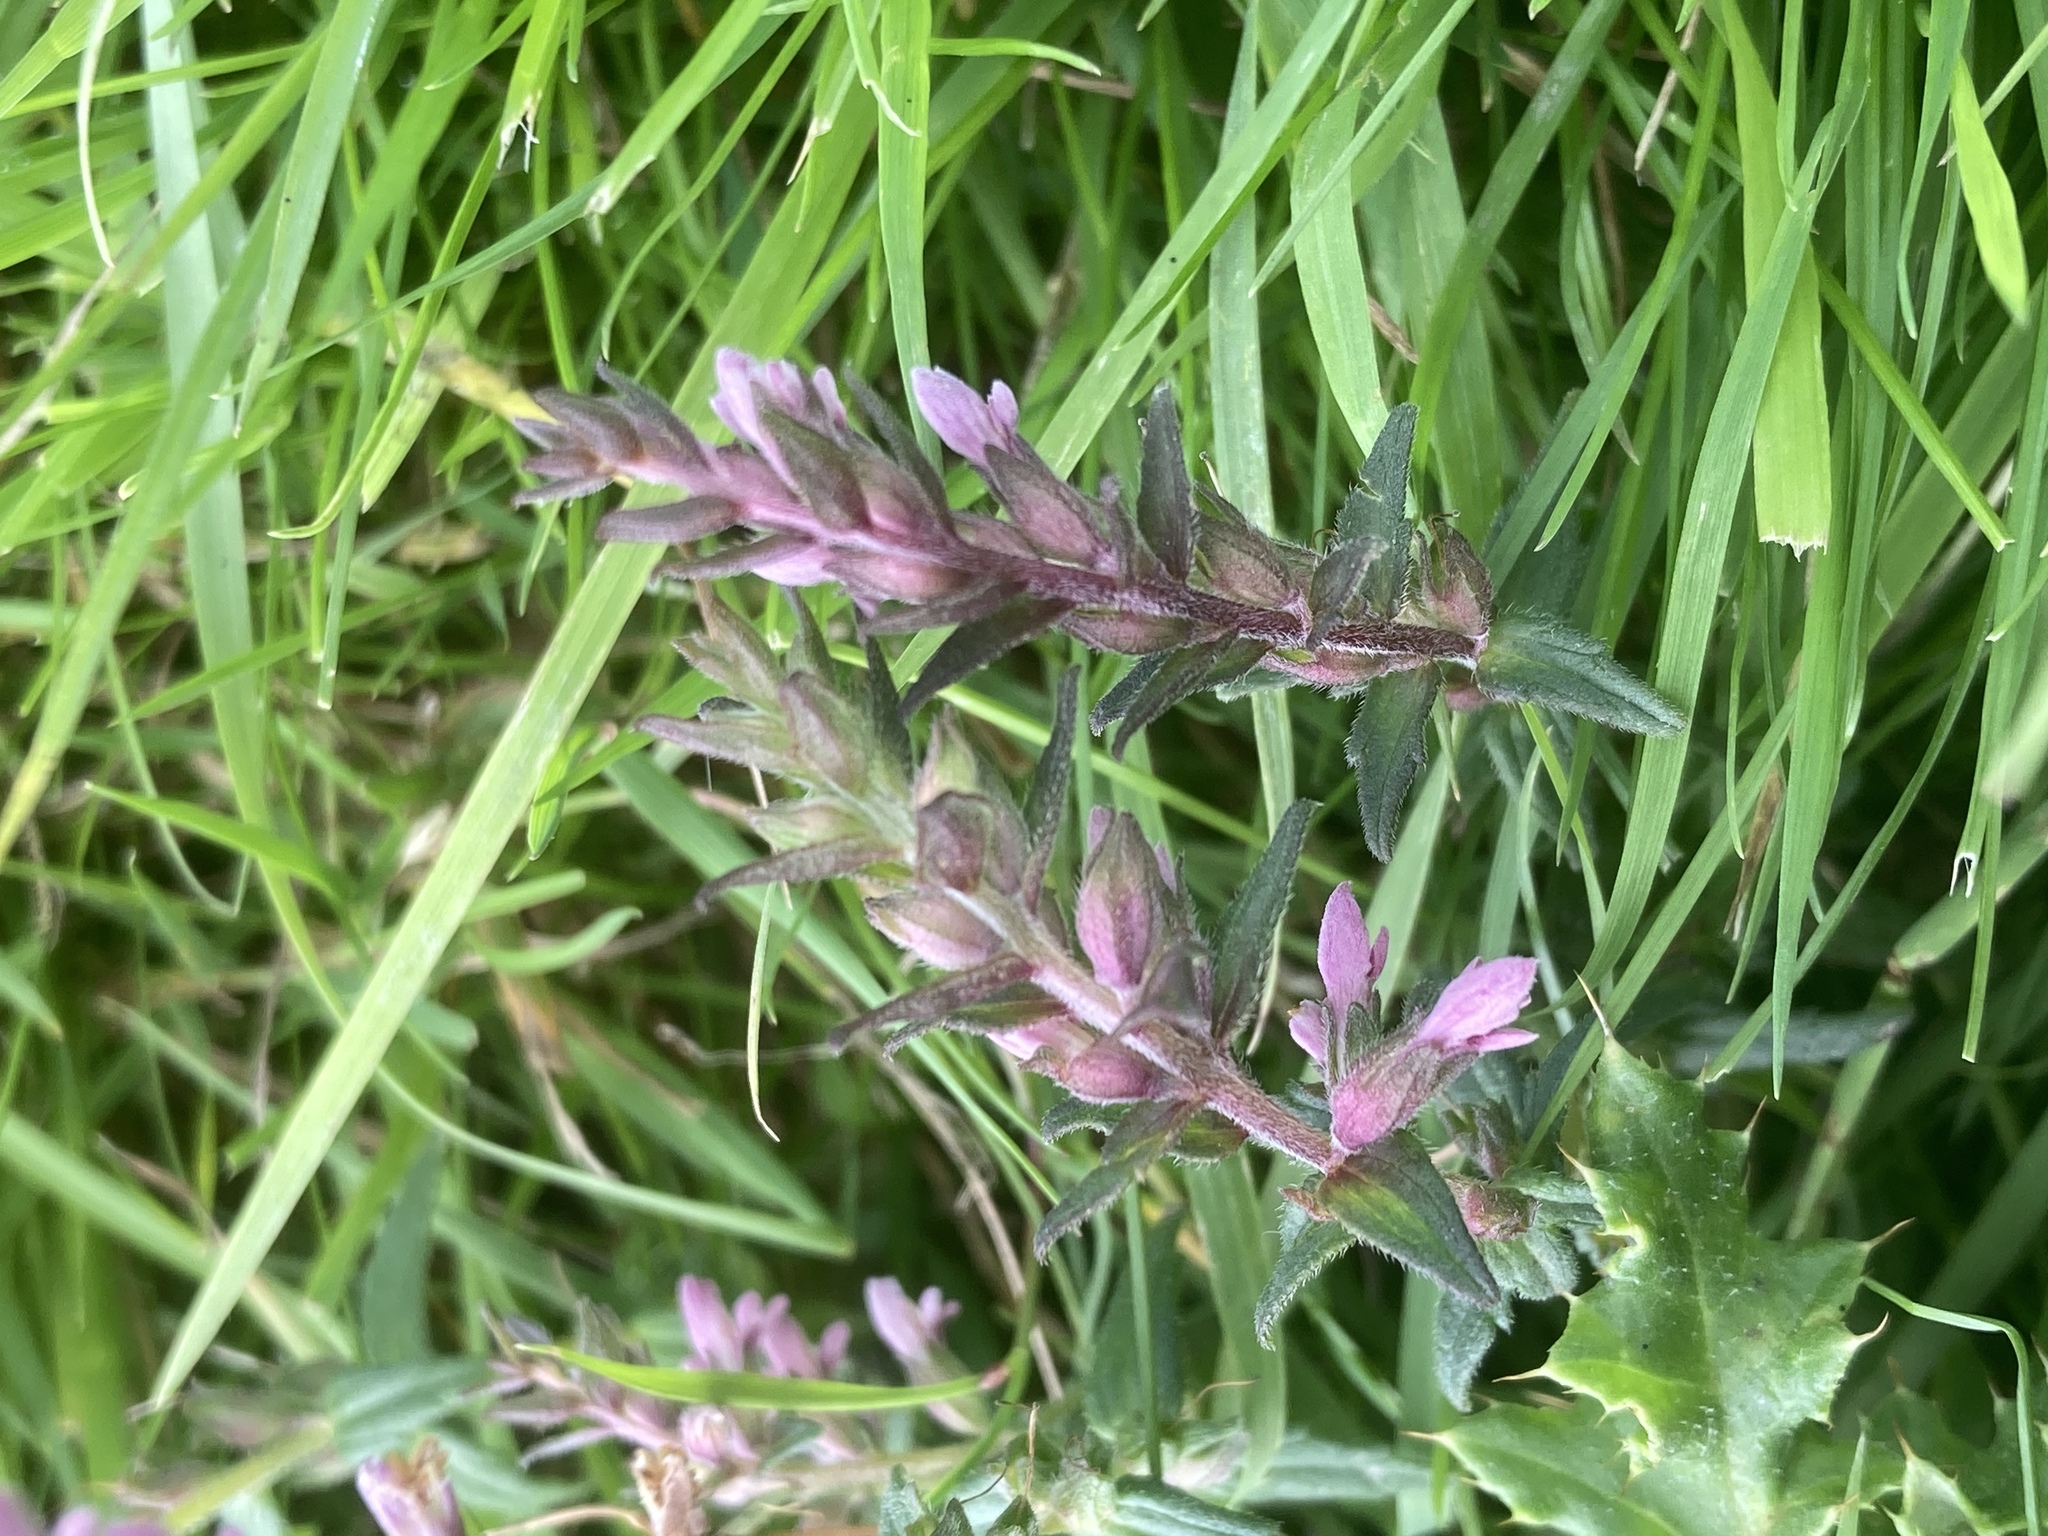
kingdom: Plantae
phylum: Tracheophyta
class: Magnoliopsida
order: Lamiales
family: Orobanchaceae
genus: Odontites
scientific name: Odontites vernus
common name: Red bartsia
